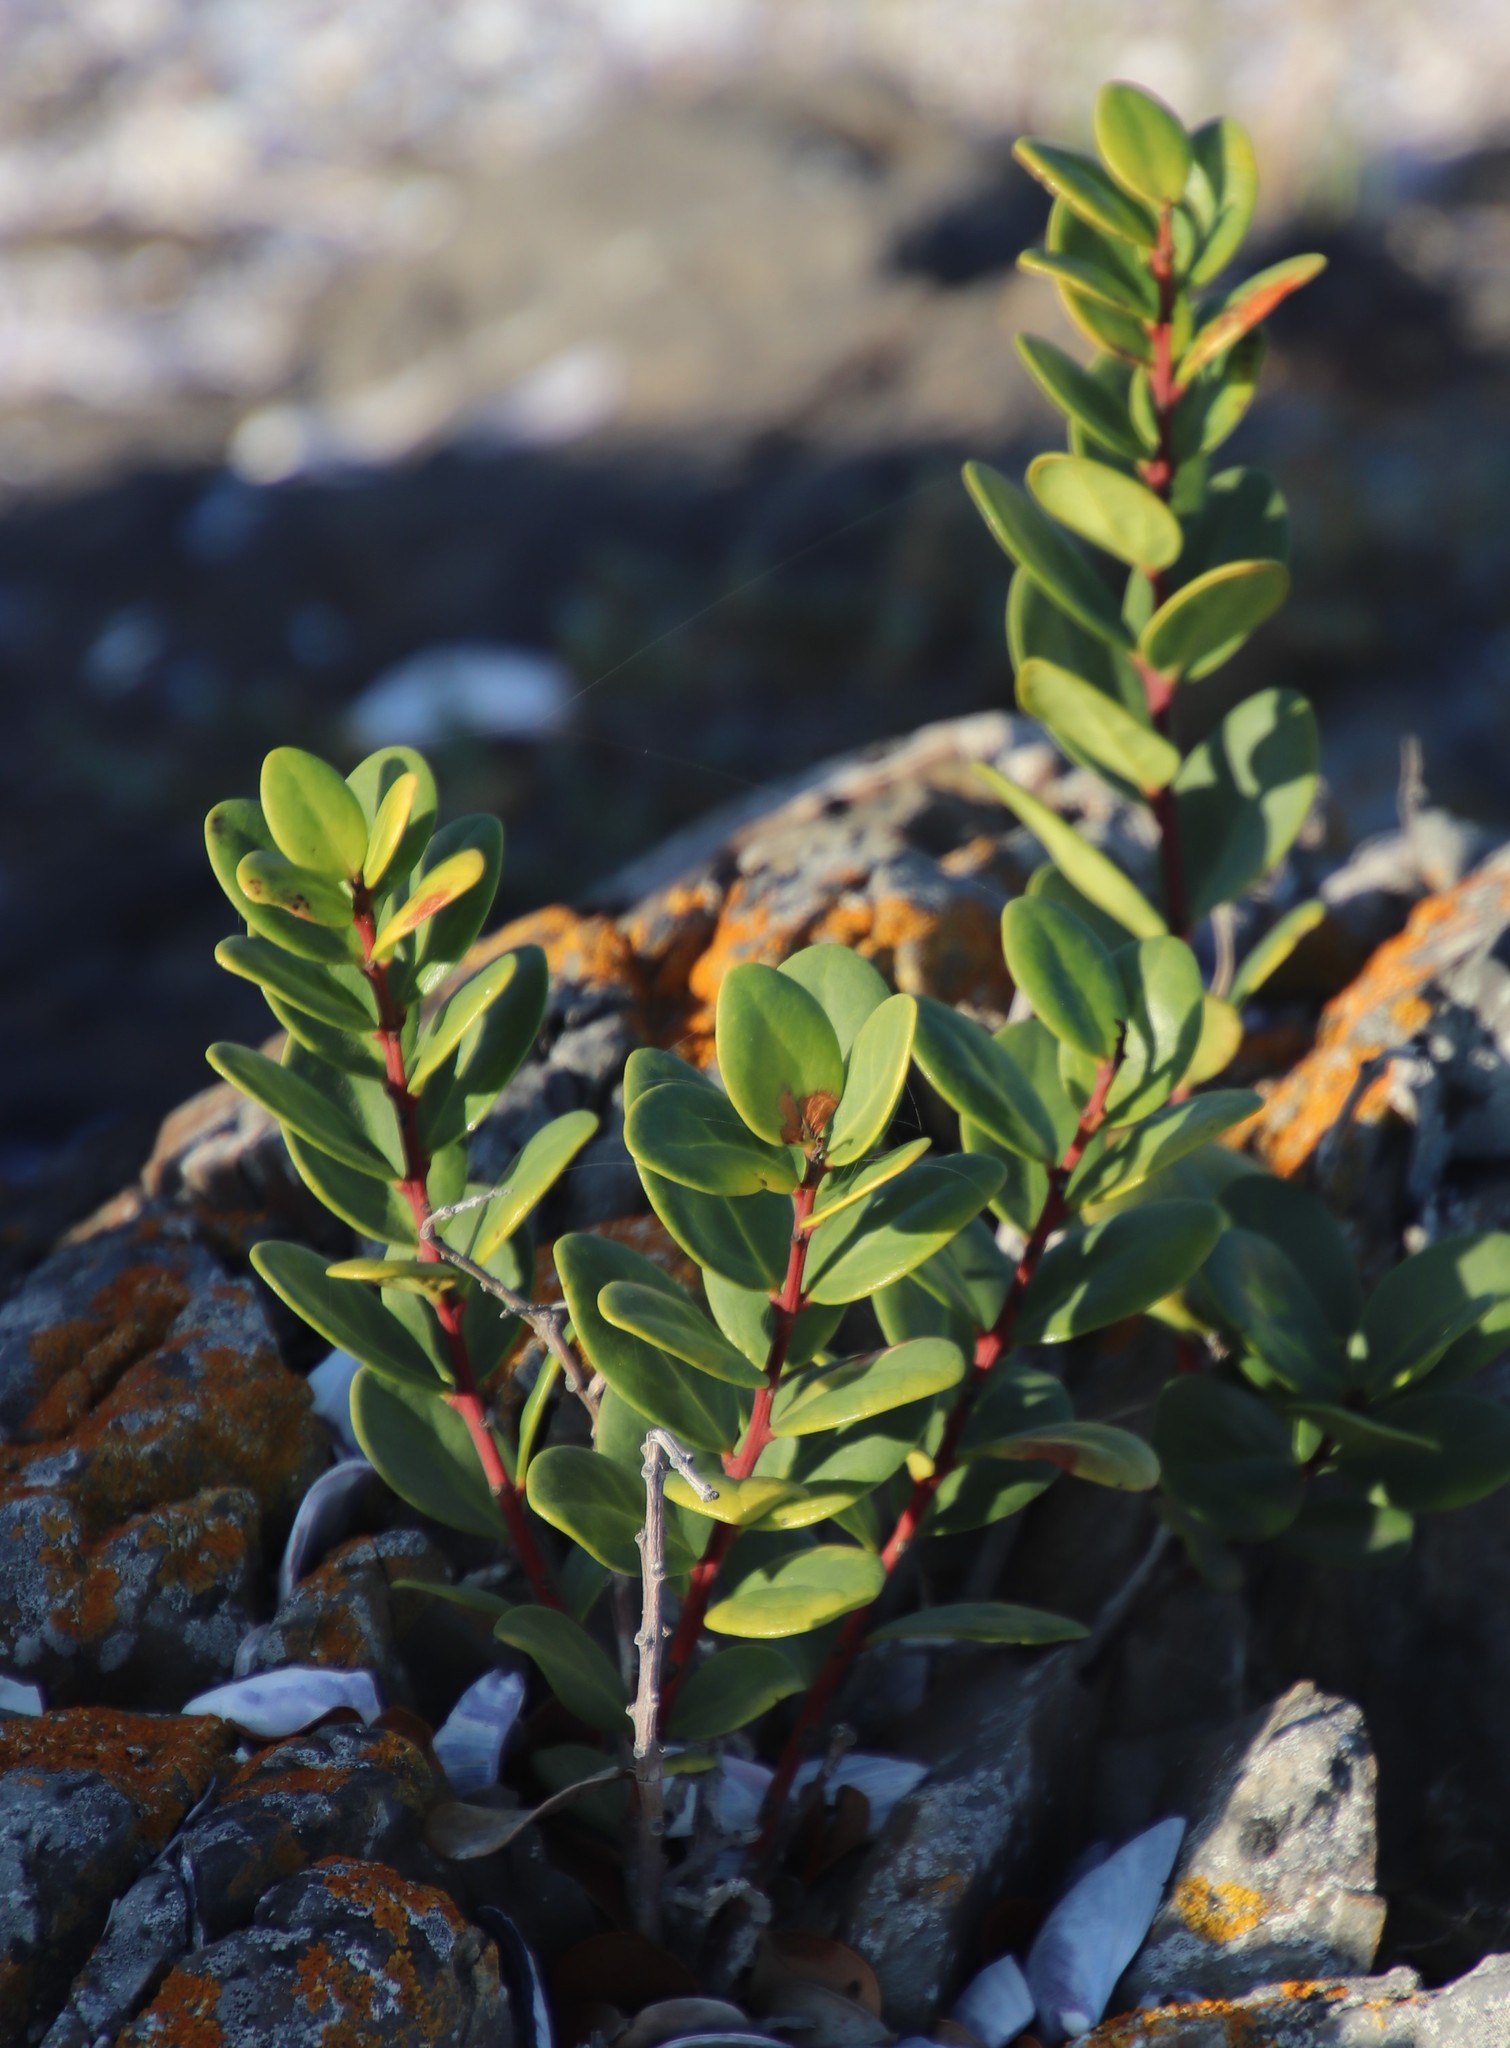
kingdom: Plantae
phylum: Tracheophyta
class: Magnoliopsida
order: Ericales
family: Ebenaceae
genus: Euclea
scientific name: Euclea racemosa
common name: Dune guarri
